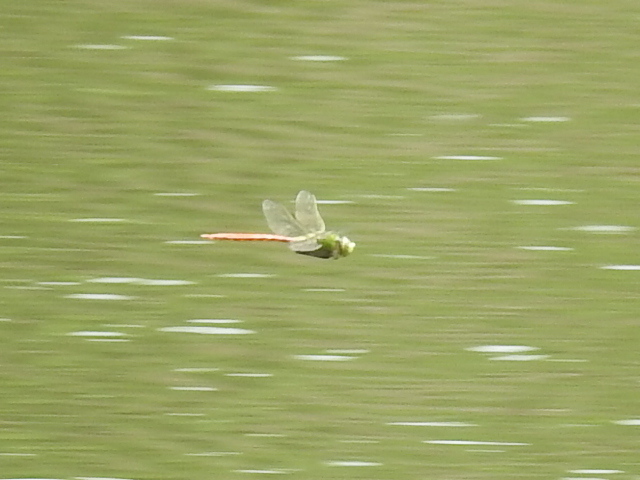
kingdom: Animalia
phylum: Arthropoda
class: Insecta
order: Odonata
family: Aeshnidae
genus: Anax
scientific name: Anax longipes
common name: Comet darner
